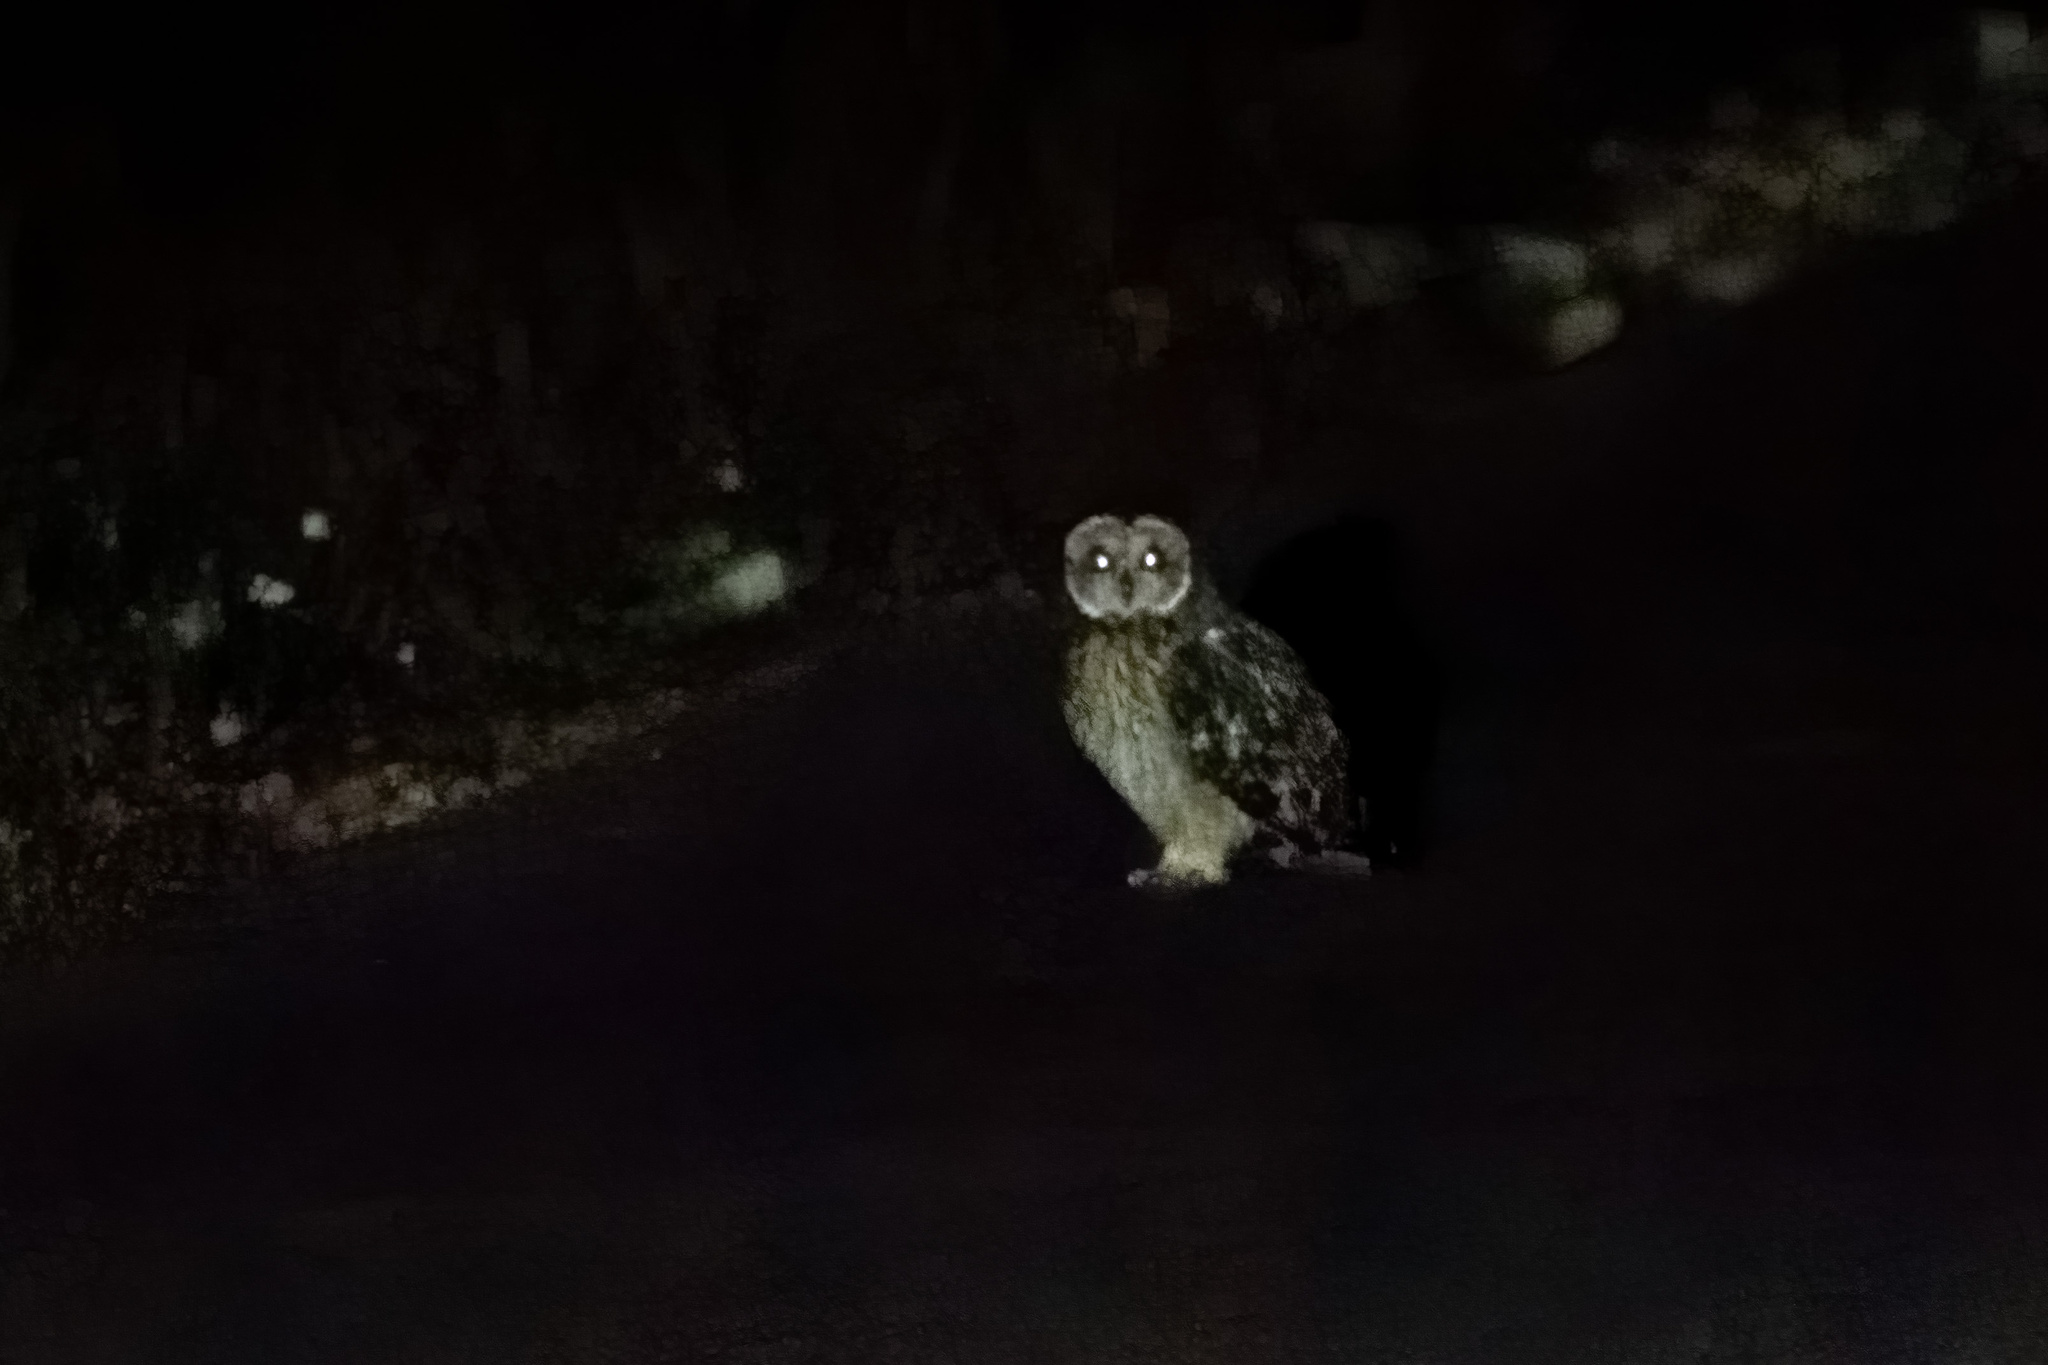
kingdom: Animalia
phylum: Chordata
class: Aves
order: Strigiformes
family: Strigidae
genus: Asio
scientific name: Asio flammeus
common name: Short-eared owl
